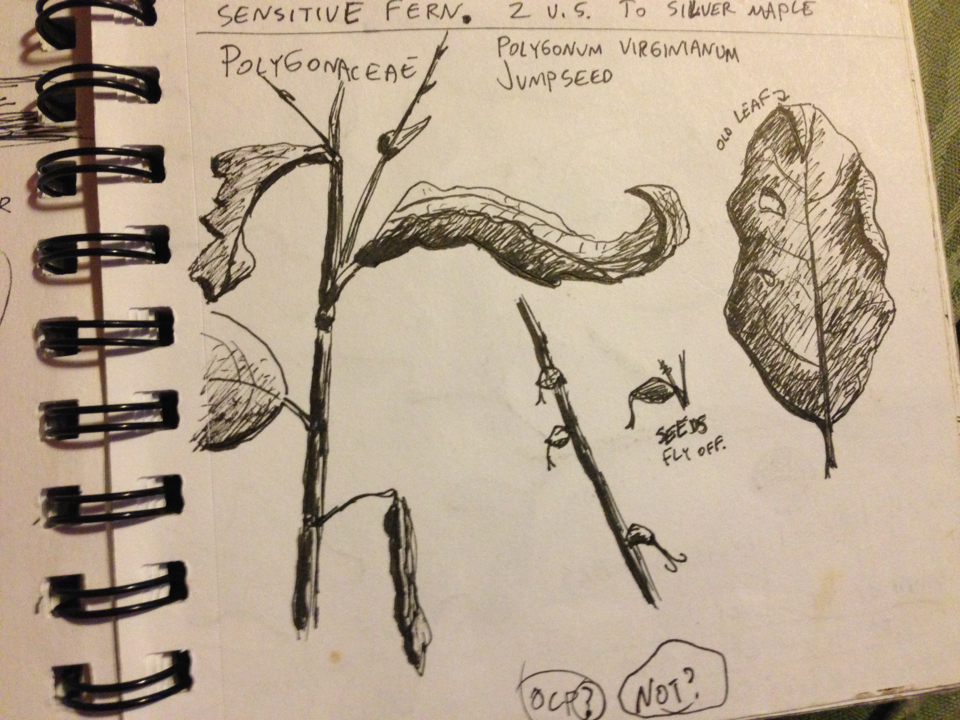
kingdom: Plantae
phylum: Tracheophyta
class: Magnoliopsida
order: Caryophyllales
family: Polygonaceae
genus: Persicaria
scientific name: Persicaria virginiana
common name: Jumpseed
